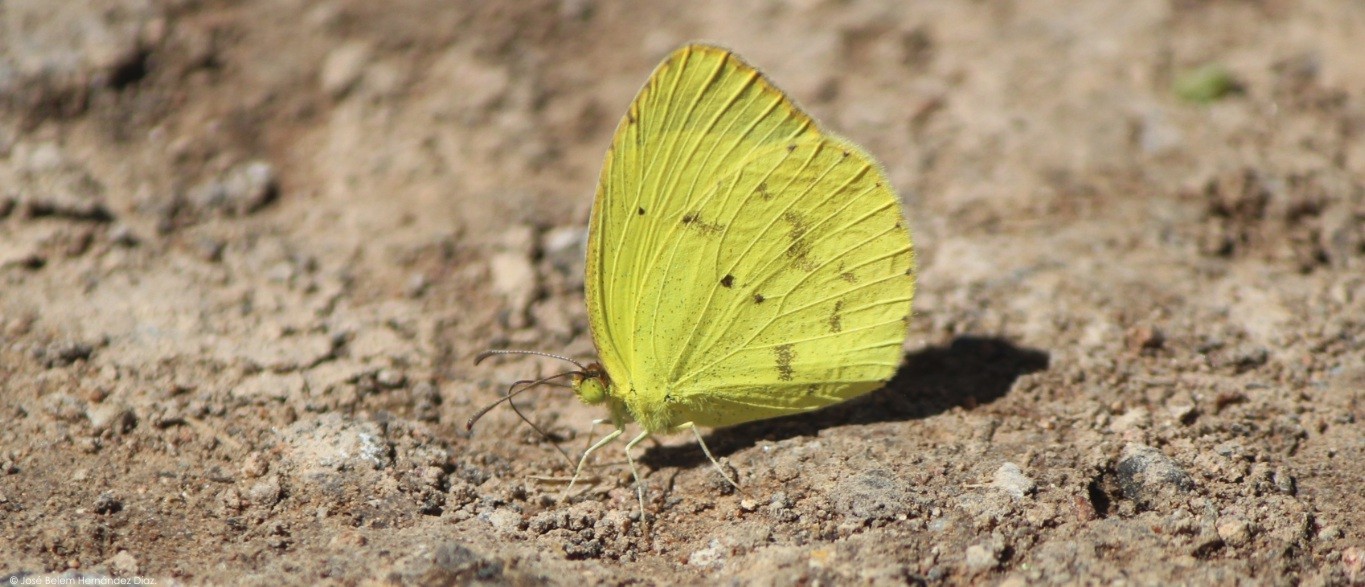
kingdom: Animalia
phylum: Arthropoda
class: Insecta
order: Lepidoptera
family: Pieridae
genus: Pyrisitia
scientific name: Pyrisitia nise
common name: Mimosa yellow
